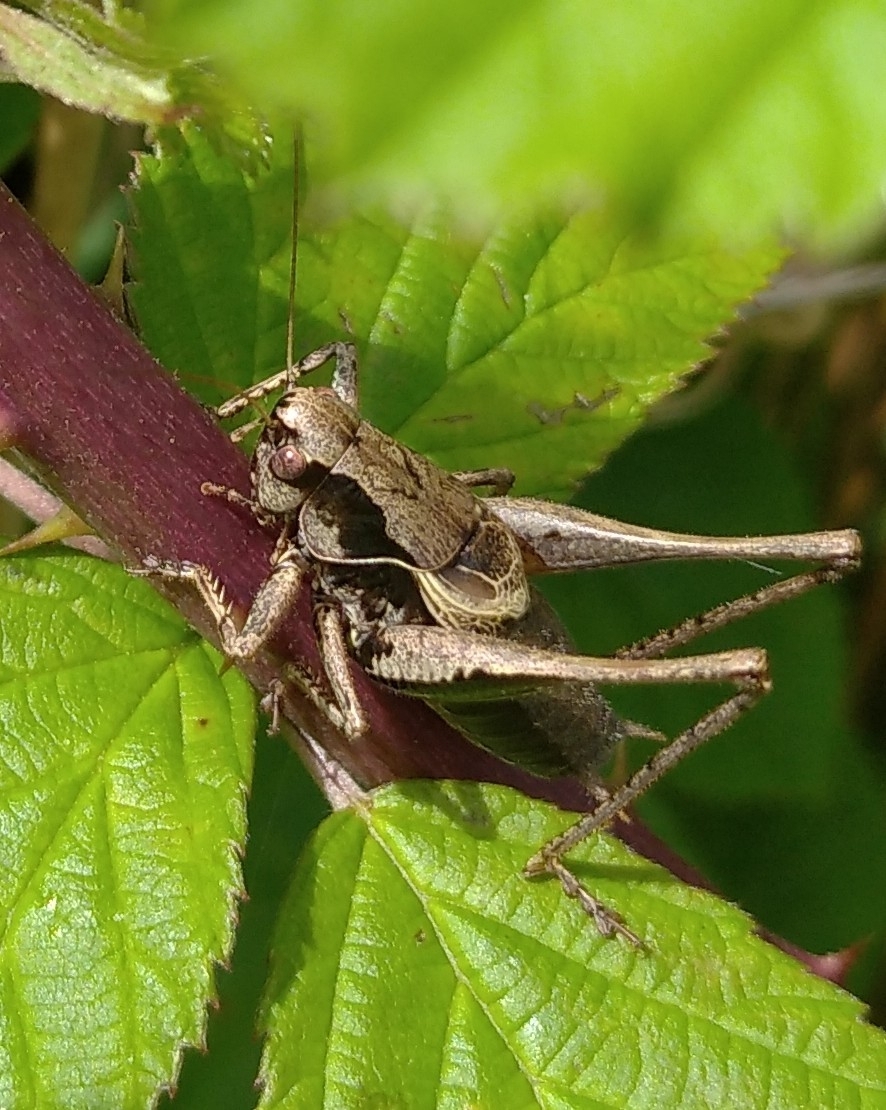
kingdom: Animalia
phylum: Arthropoda
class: Insecta
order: Orthoptera
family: Tettigoniidae
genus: Pholidoptera
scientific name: Pholidoptera griseoaptera
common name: Dark bush-cricket
